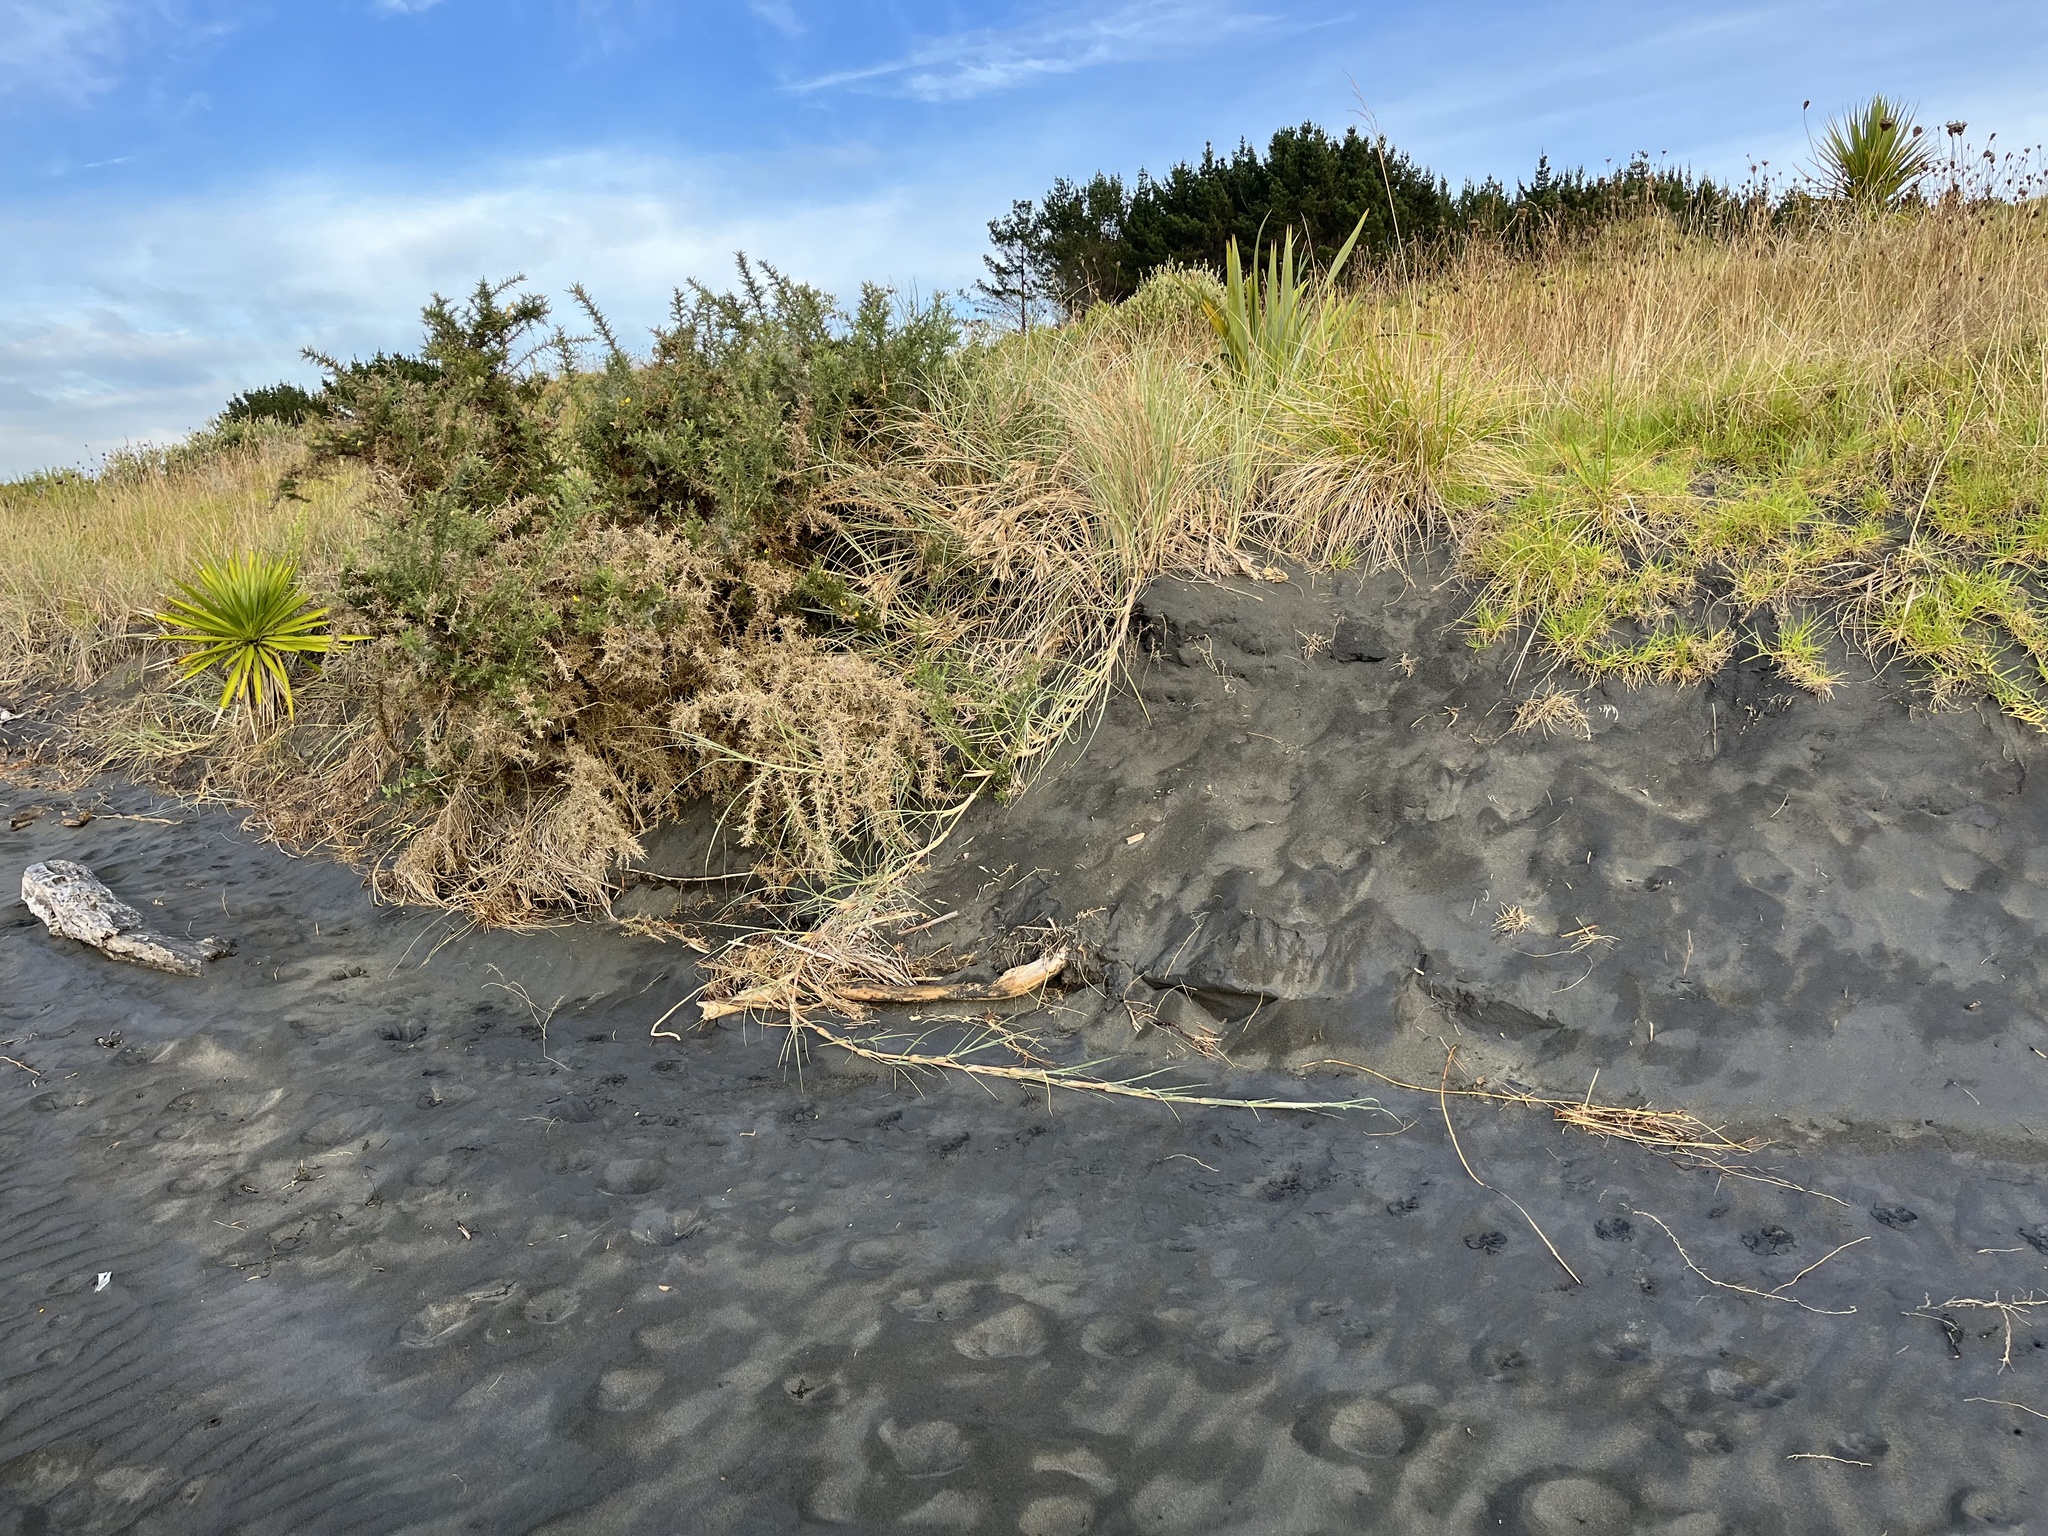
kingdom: Plantae
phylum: Tracheophyta
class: Liliopsida
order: Poales
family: Poaceae
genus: Spinifex
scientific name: Spinifex sericeus
